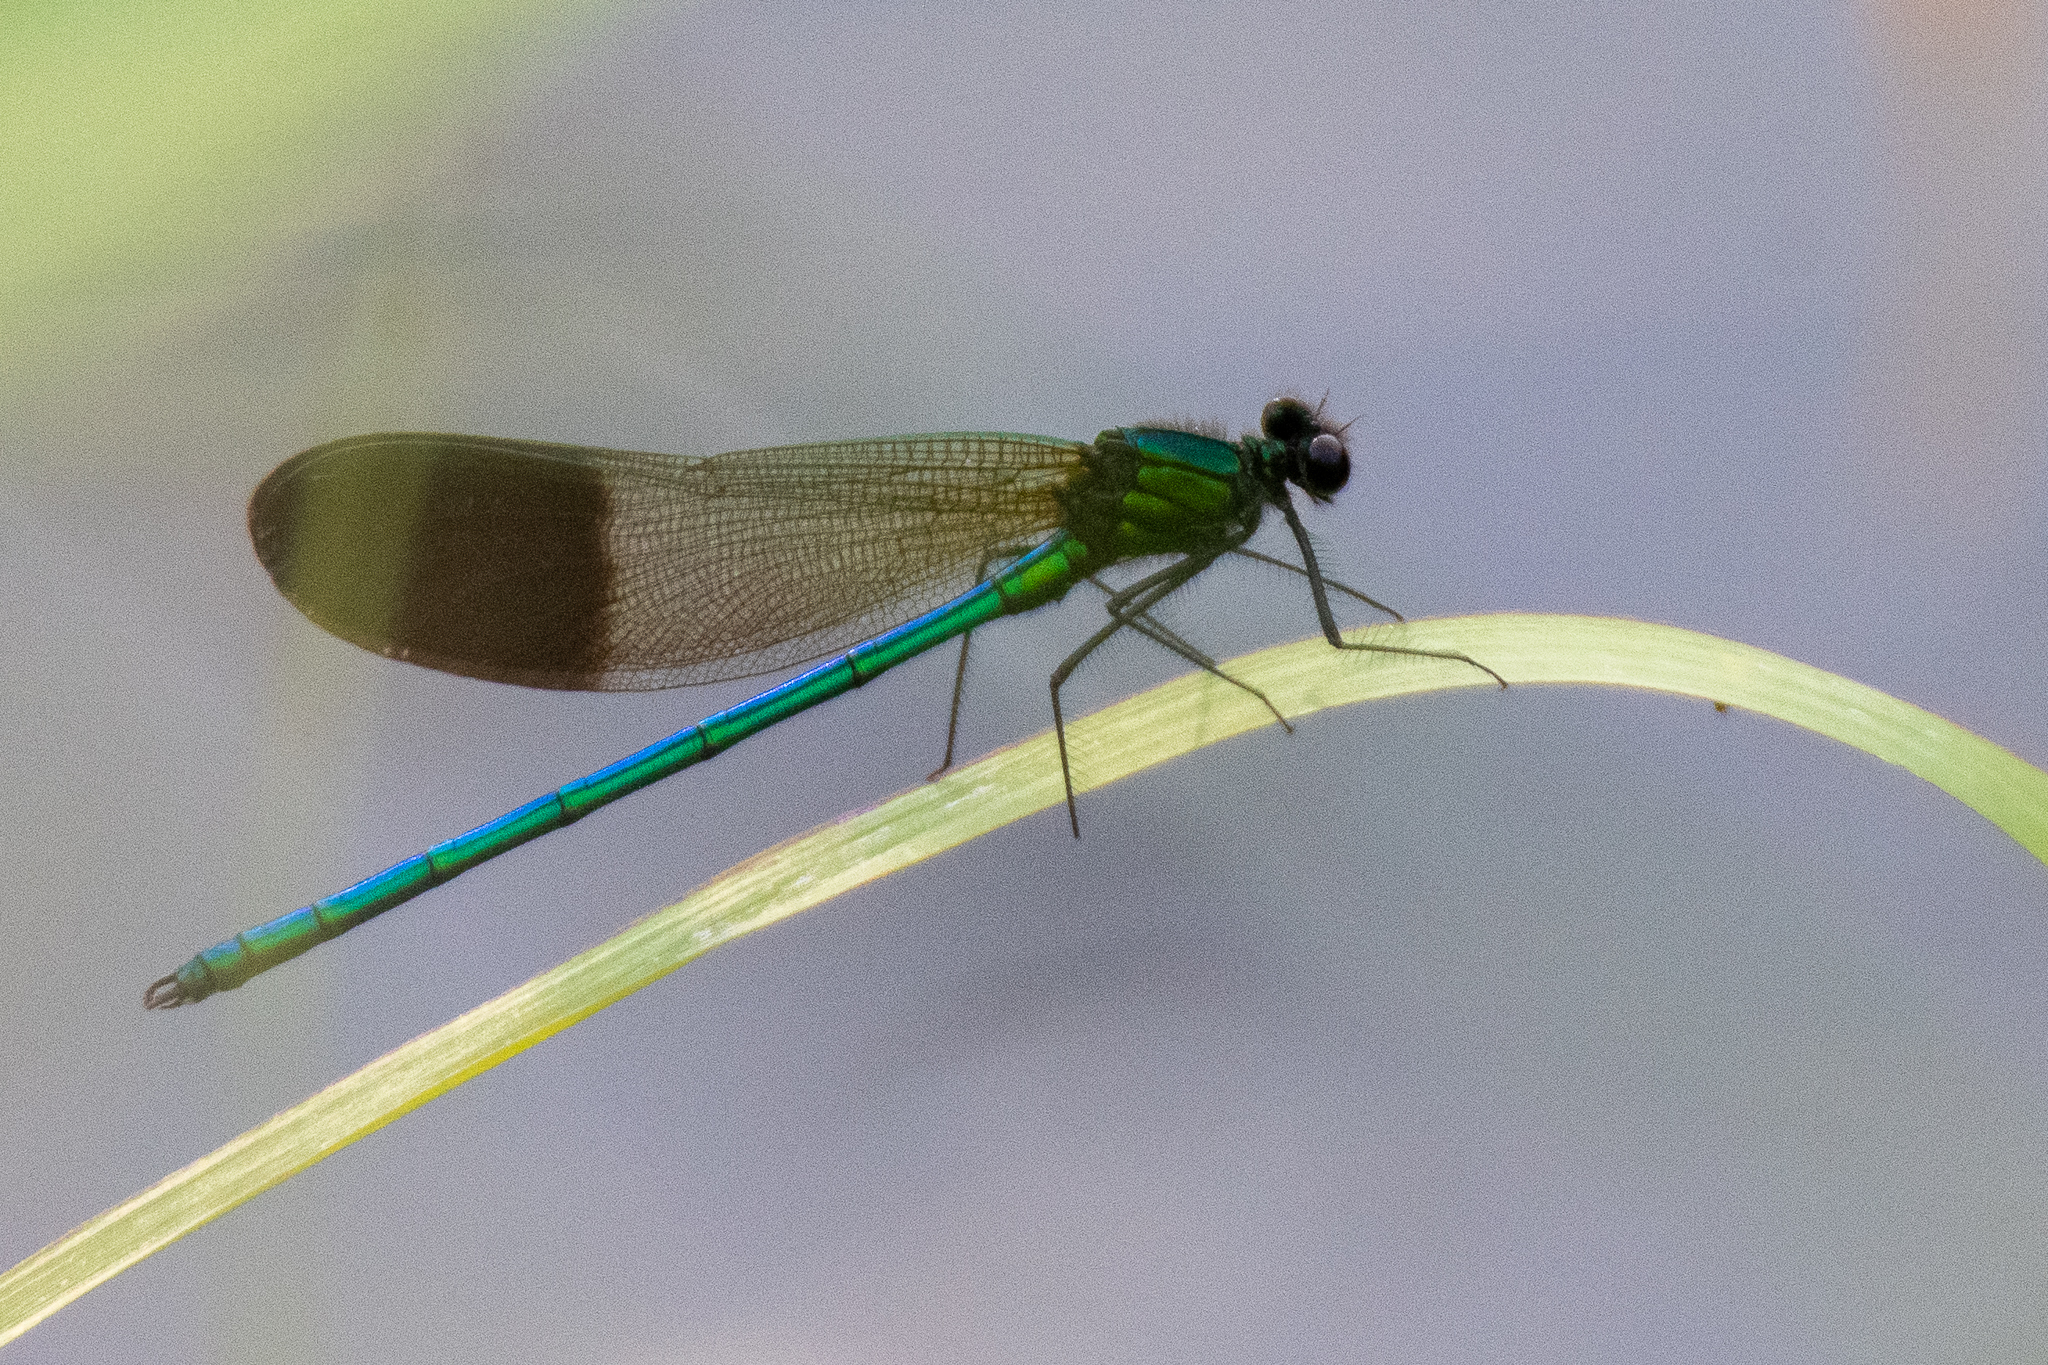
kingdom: Animalia
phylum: Arthropoda
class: Insecta
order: Odonata
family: Calopterygidae
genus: Calopteryx
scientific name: Calopteryx aequabilis
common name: River jewelwing
